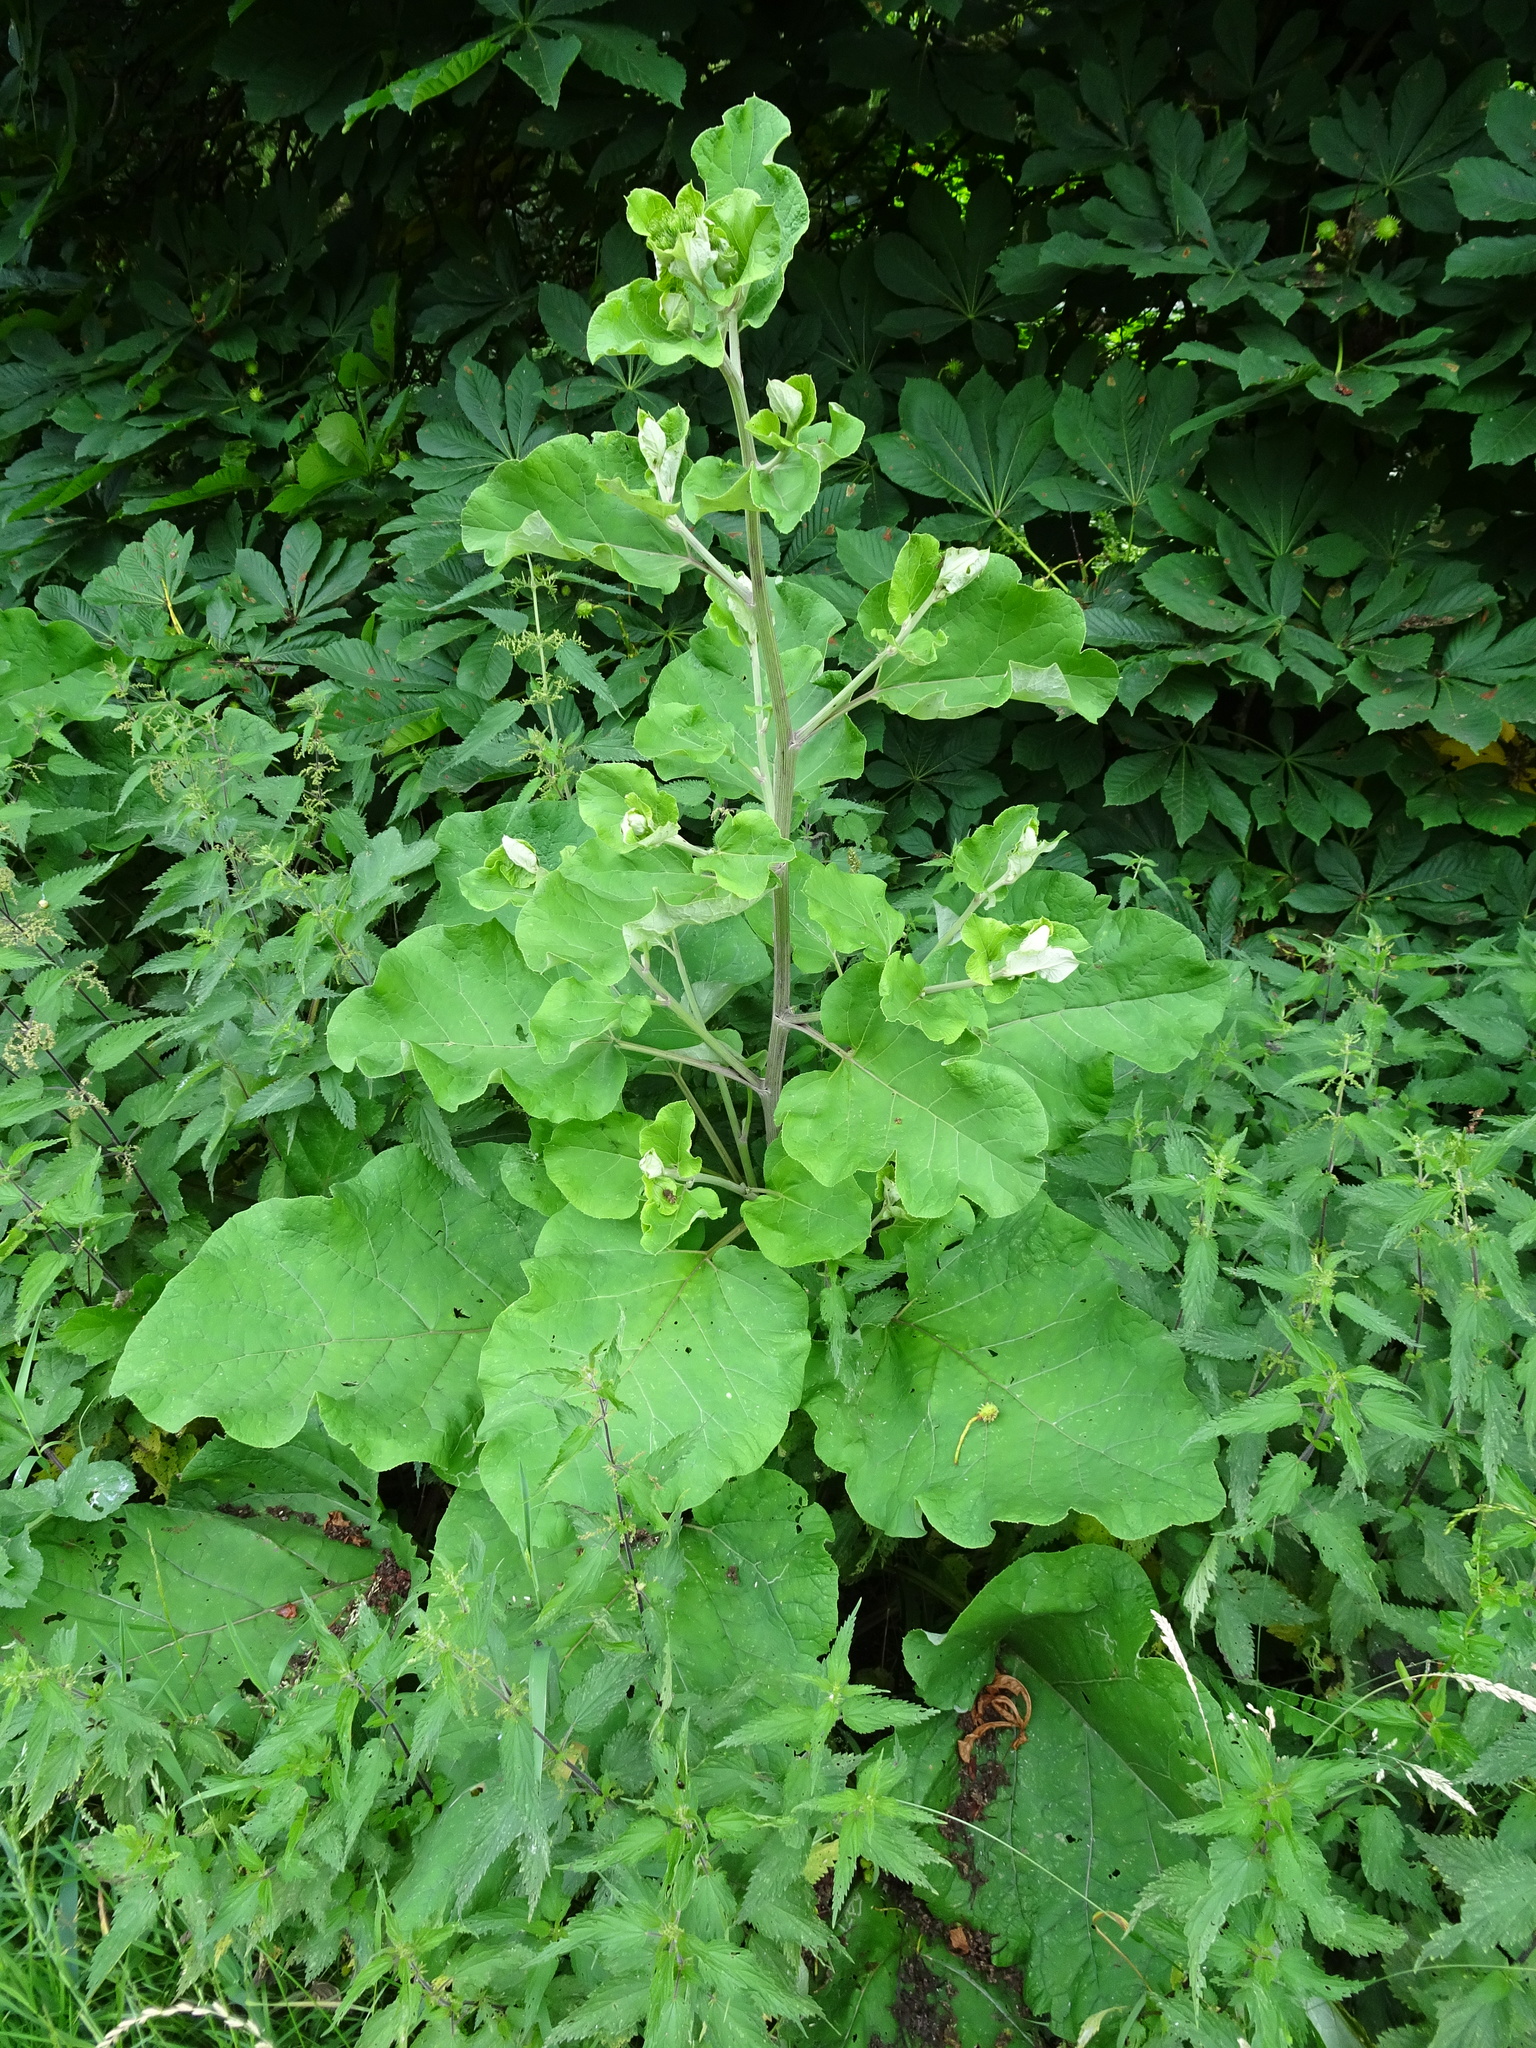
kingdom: Plantae
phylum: Tracheophyta
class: Magnoliopsida
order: Asterales
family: Asteraceae
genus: Arctium
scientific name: Arctium minus
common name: Lesser burdock
